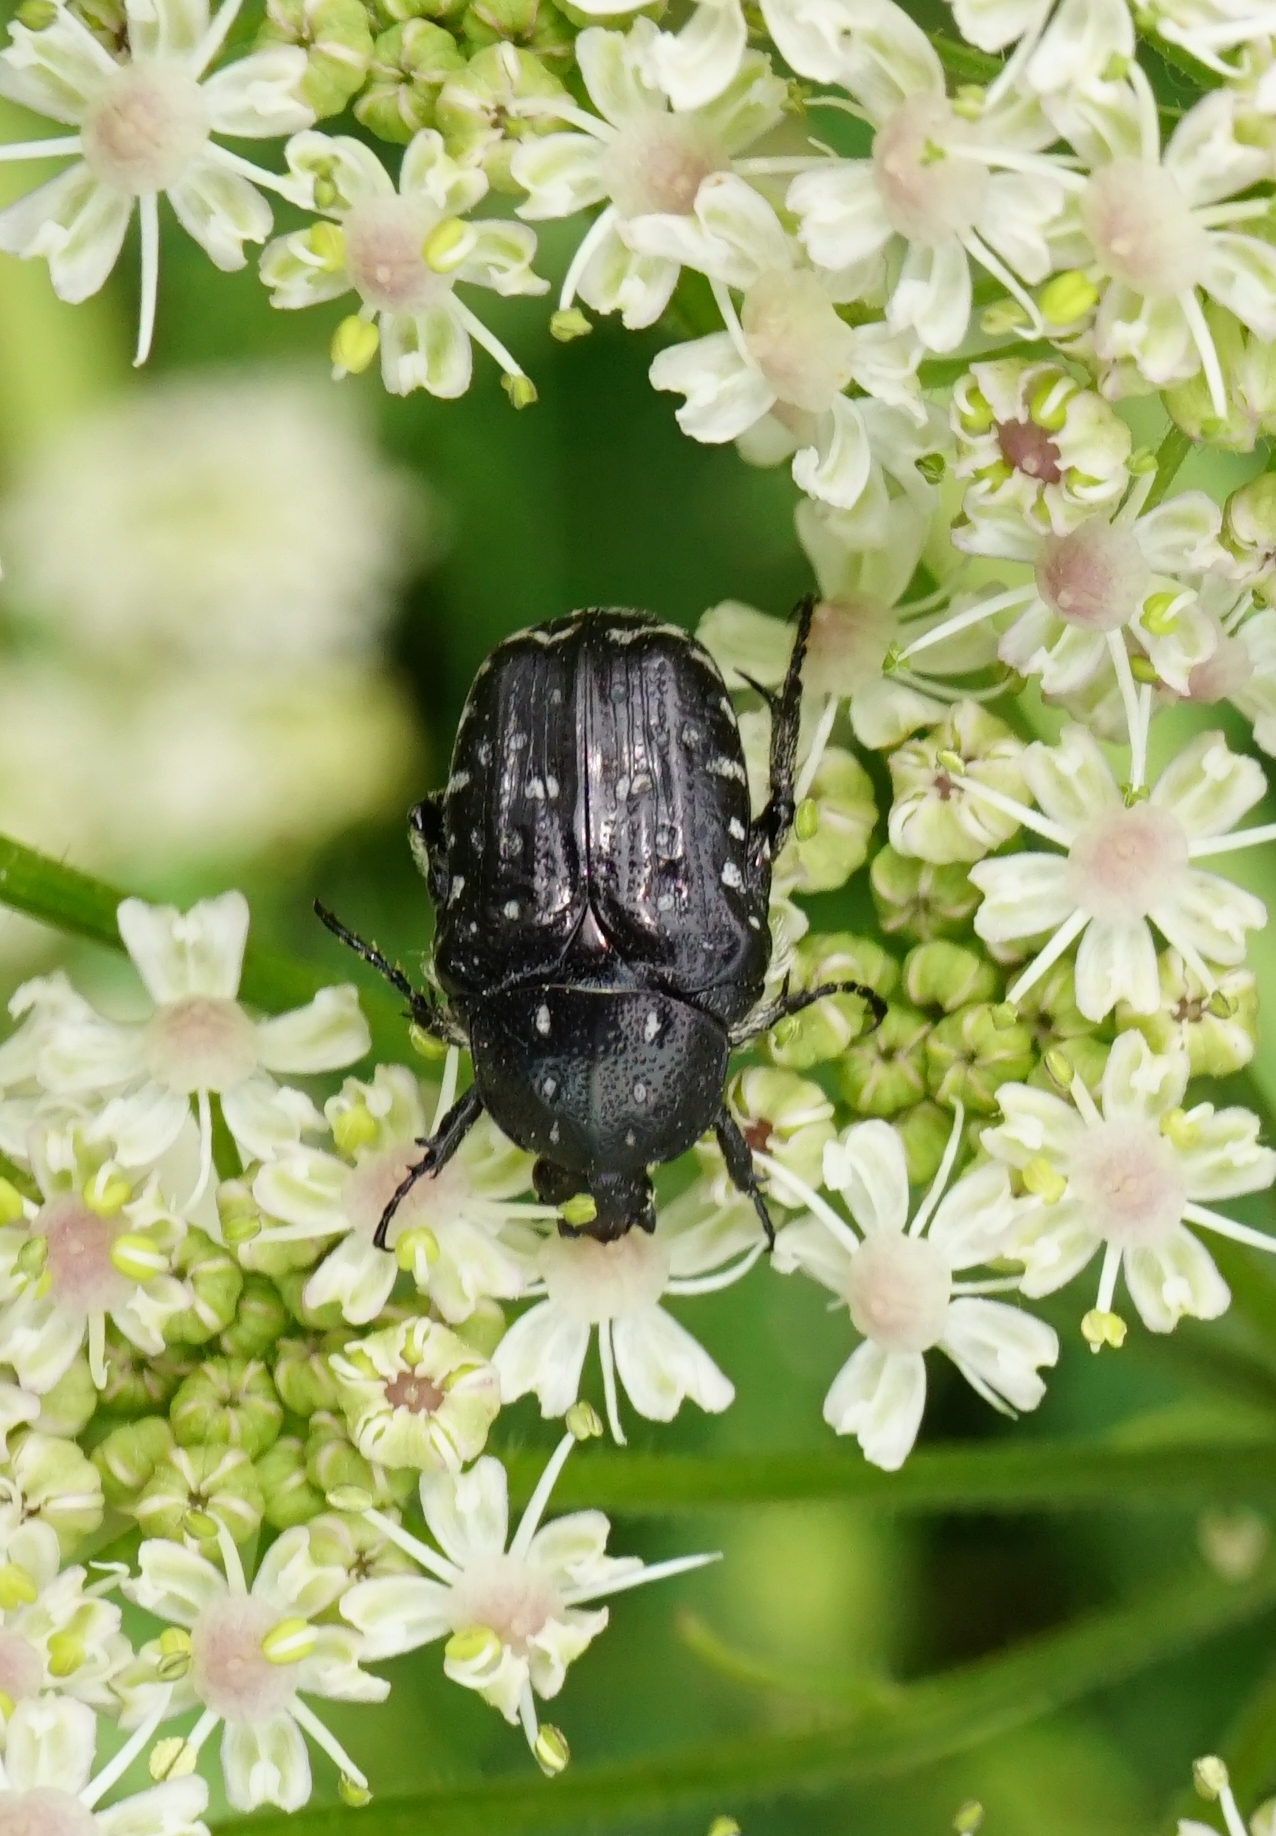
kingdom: Animalia
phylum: Arthropoda
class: Insecta
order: Coleoptera
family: Scarabaeidae
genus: Oxythyrea
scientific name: Oxythyrea funesta
